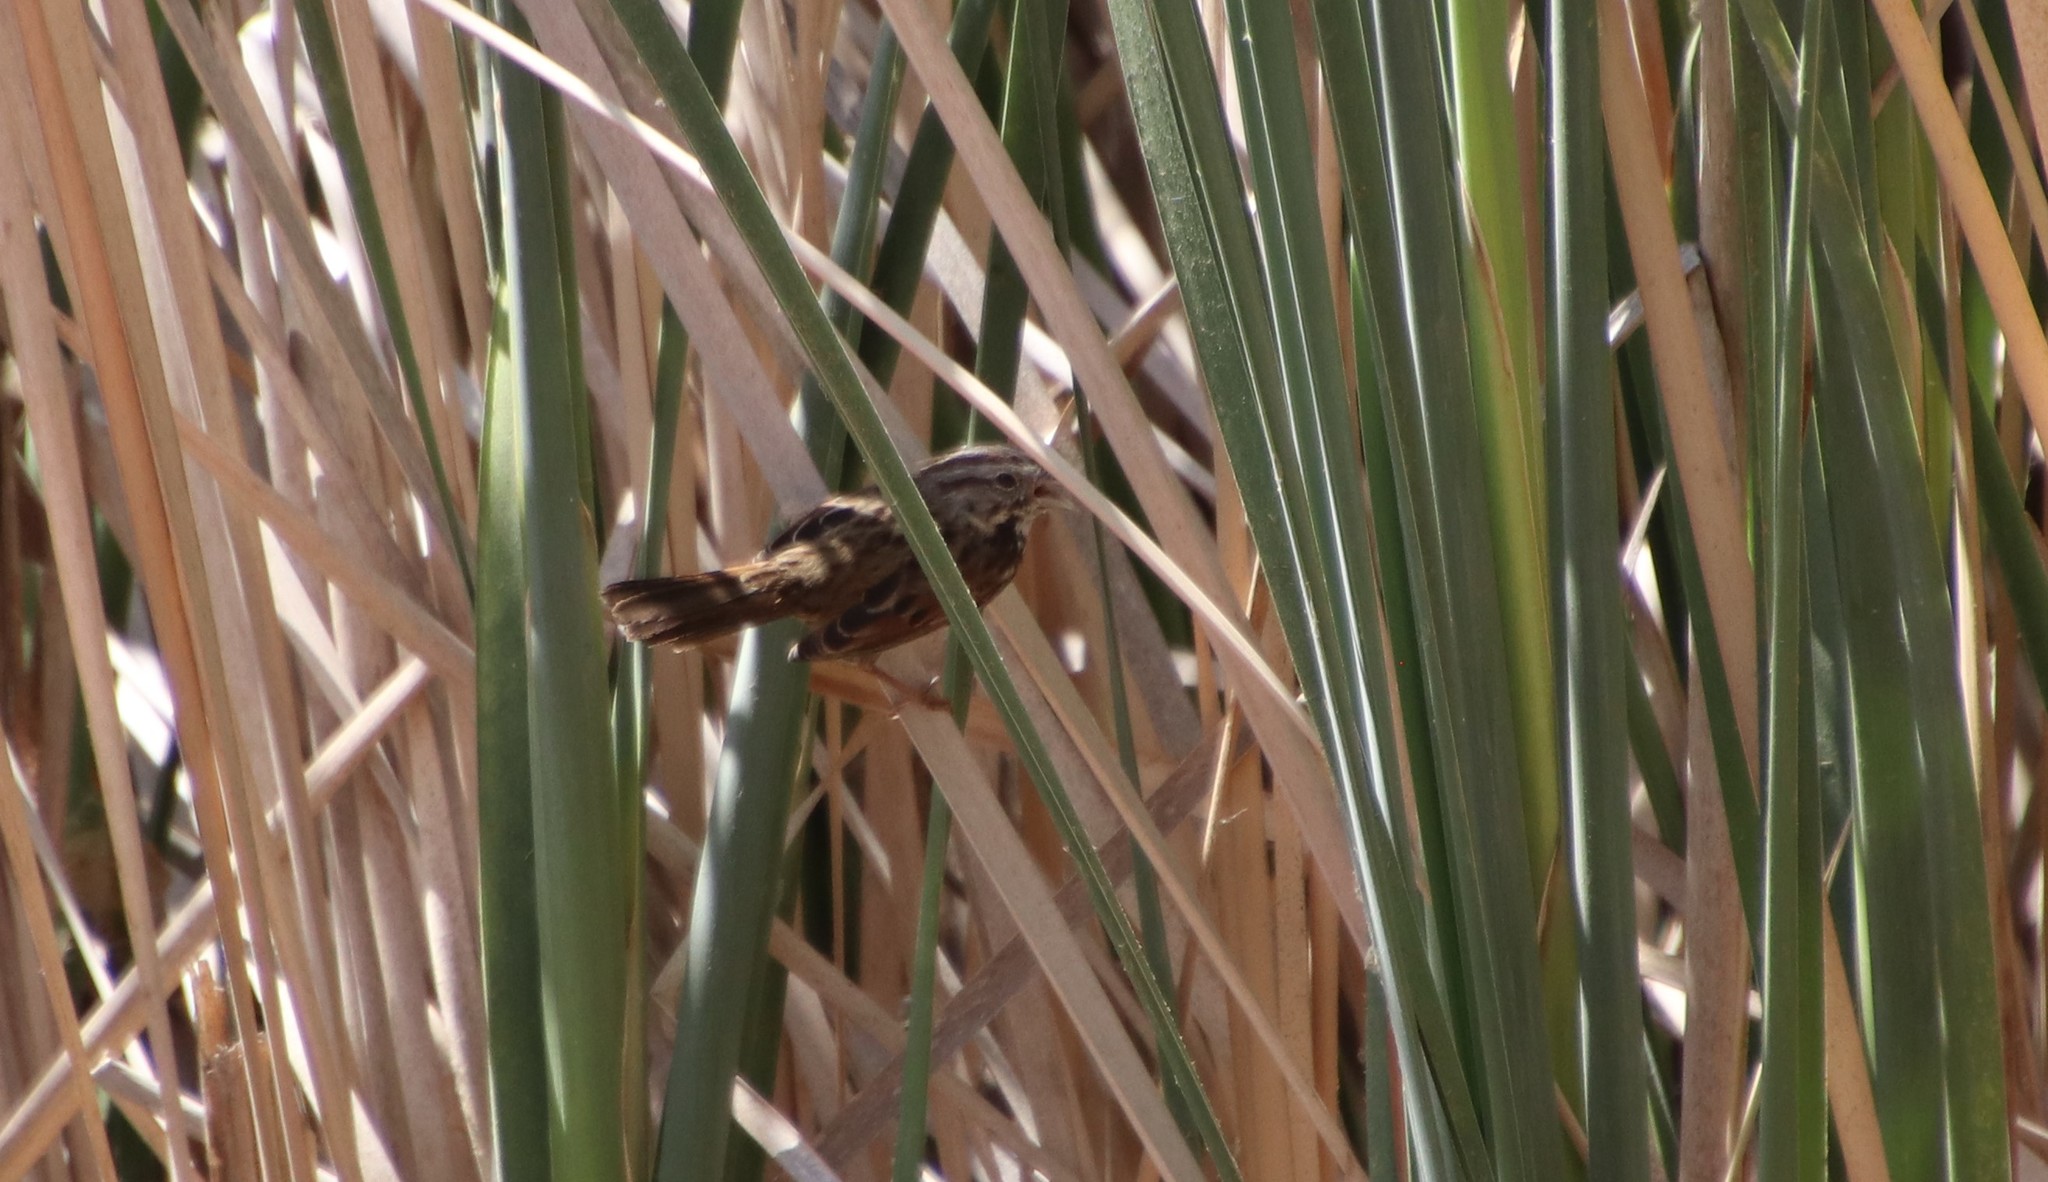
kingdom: Animalia
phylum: Chordata
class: Aves
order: Passeriformes
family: Passerellidae
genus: Melospiza
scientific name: Melospiza melodia
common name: Song sparrow
